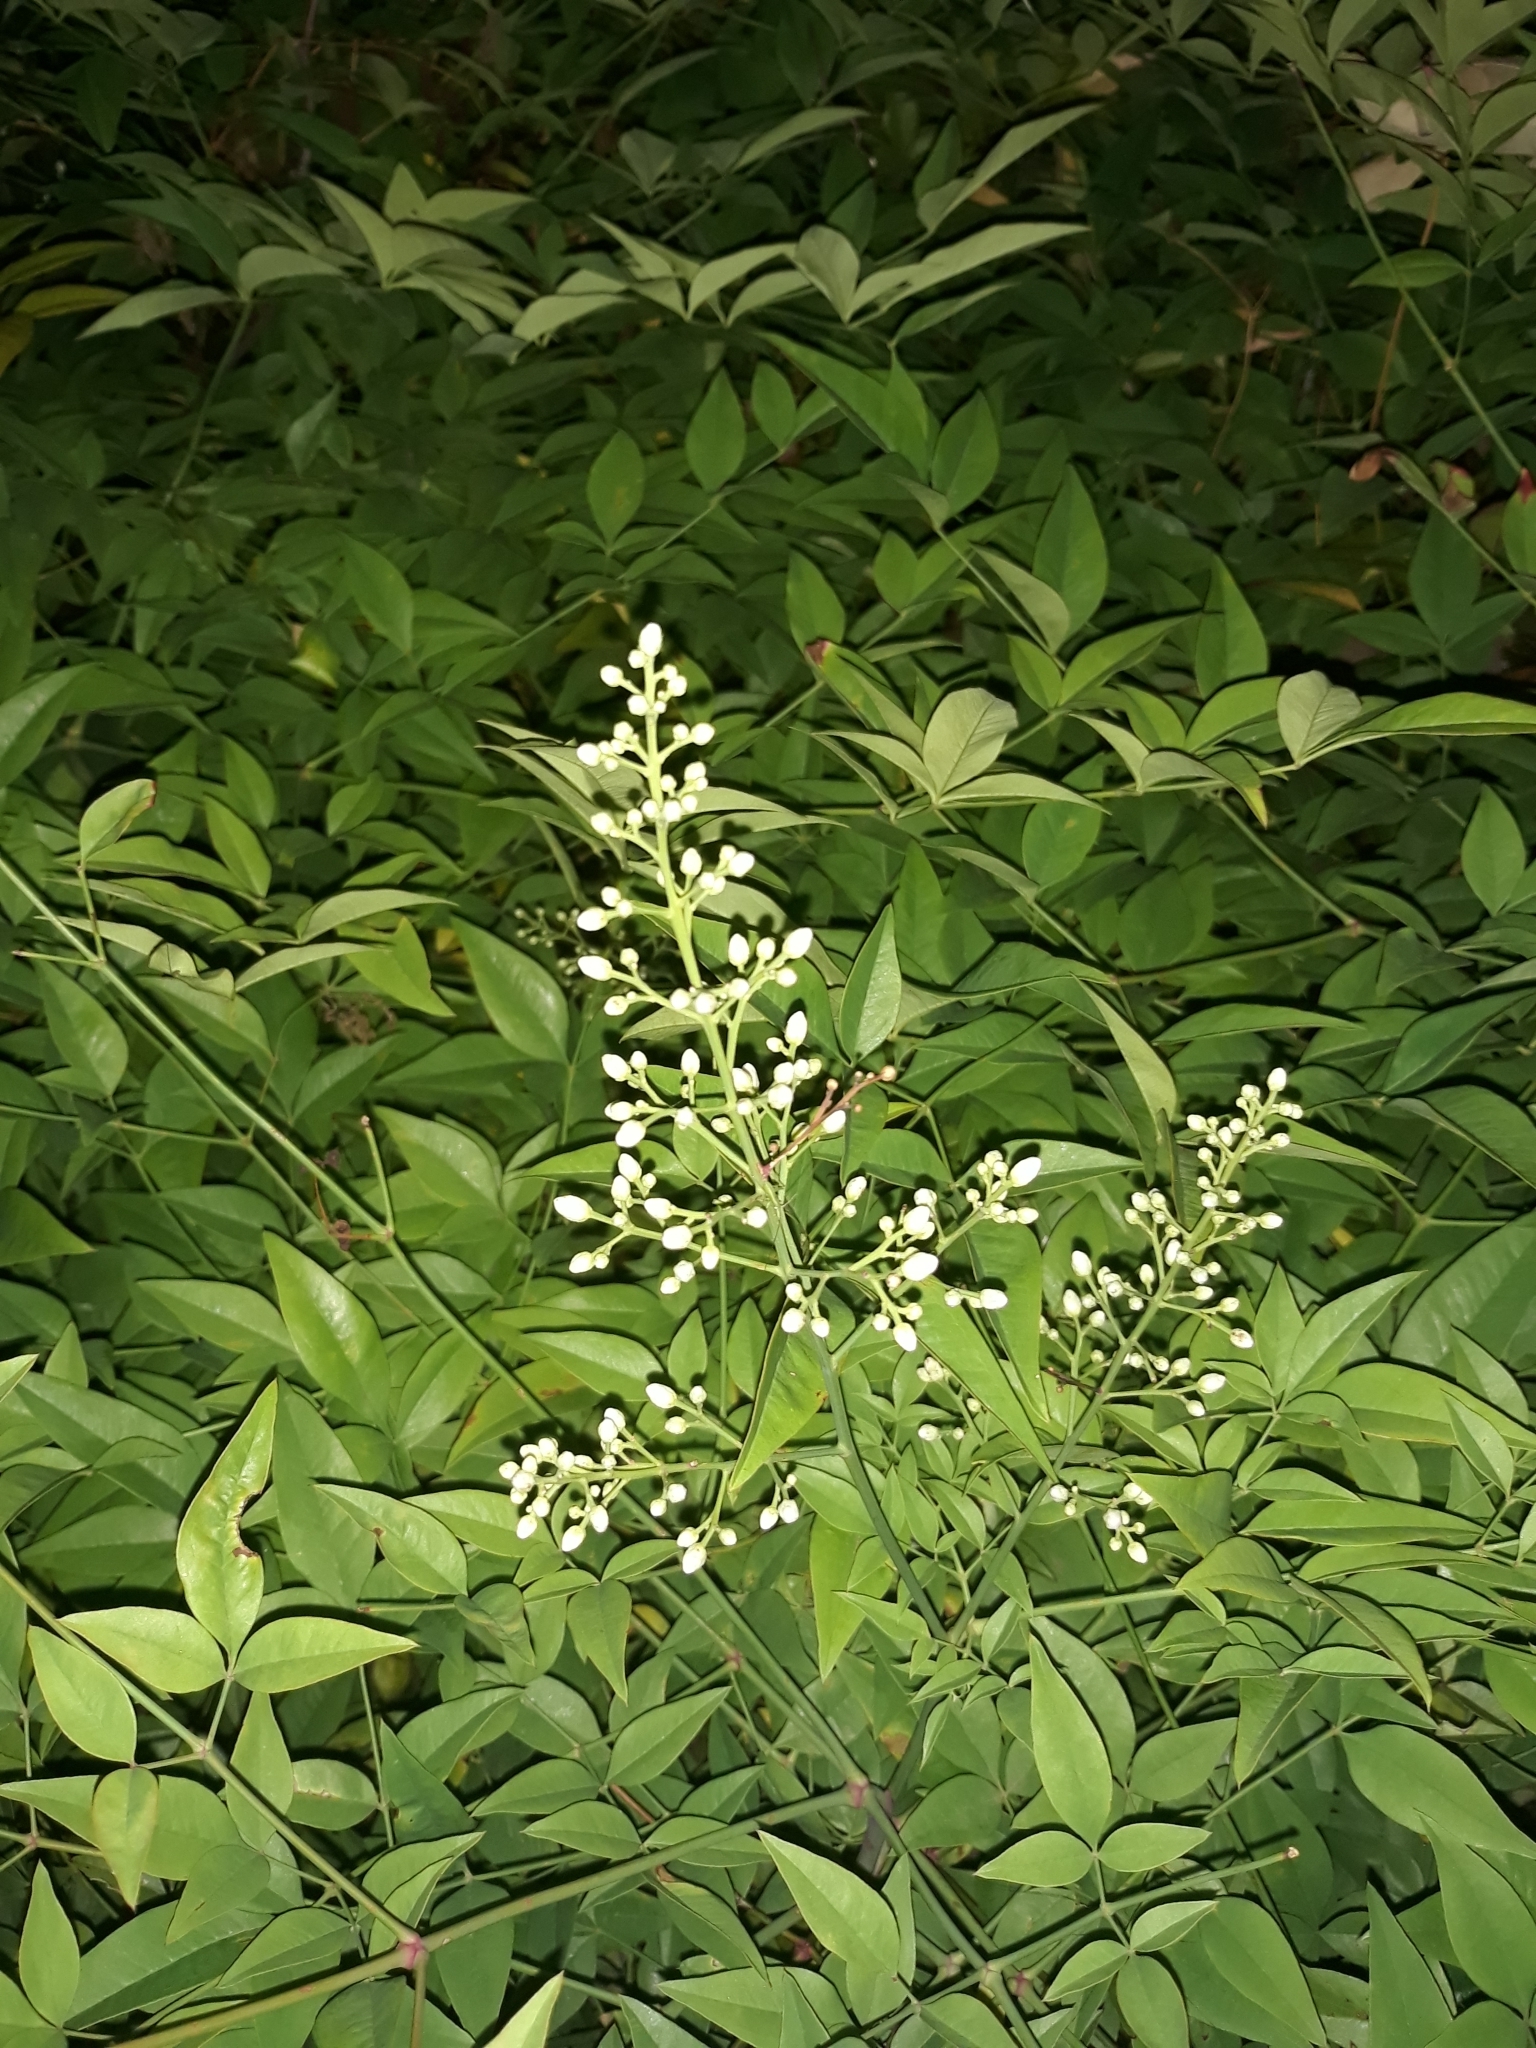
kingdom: Plantae
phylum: Tracheophyta
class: Magnoliopsida
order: Ranunculales
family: Berberidaceae
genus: Nandina
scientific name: Nandina domestica
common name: Sacred bamboo
